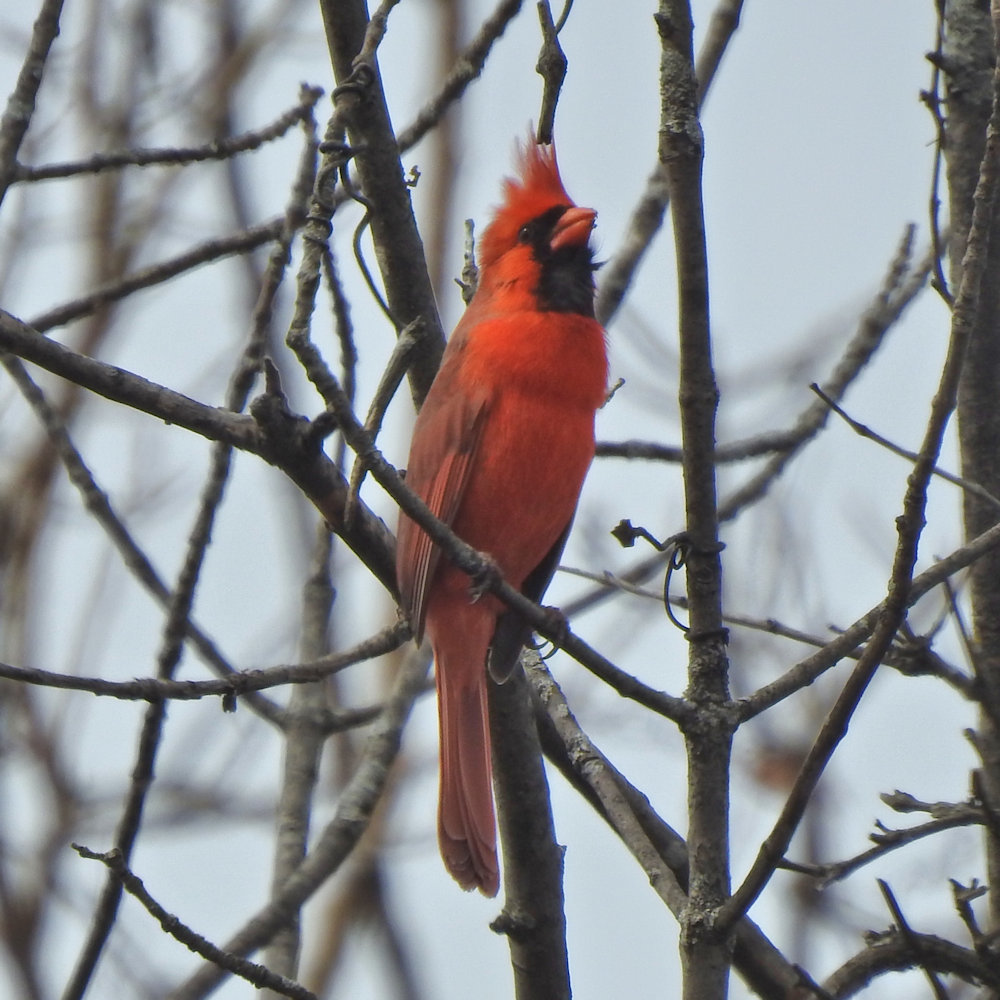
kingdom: Animalia
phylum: Chordata
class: Aves
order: Passeriformes
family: Cardinalidae
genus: Cardinalis
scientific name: Cardinalis cardinalis
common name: Northern cardinal
